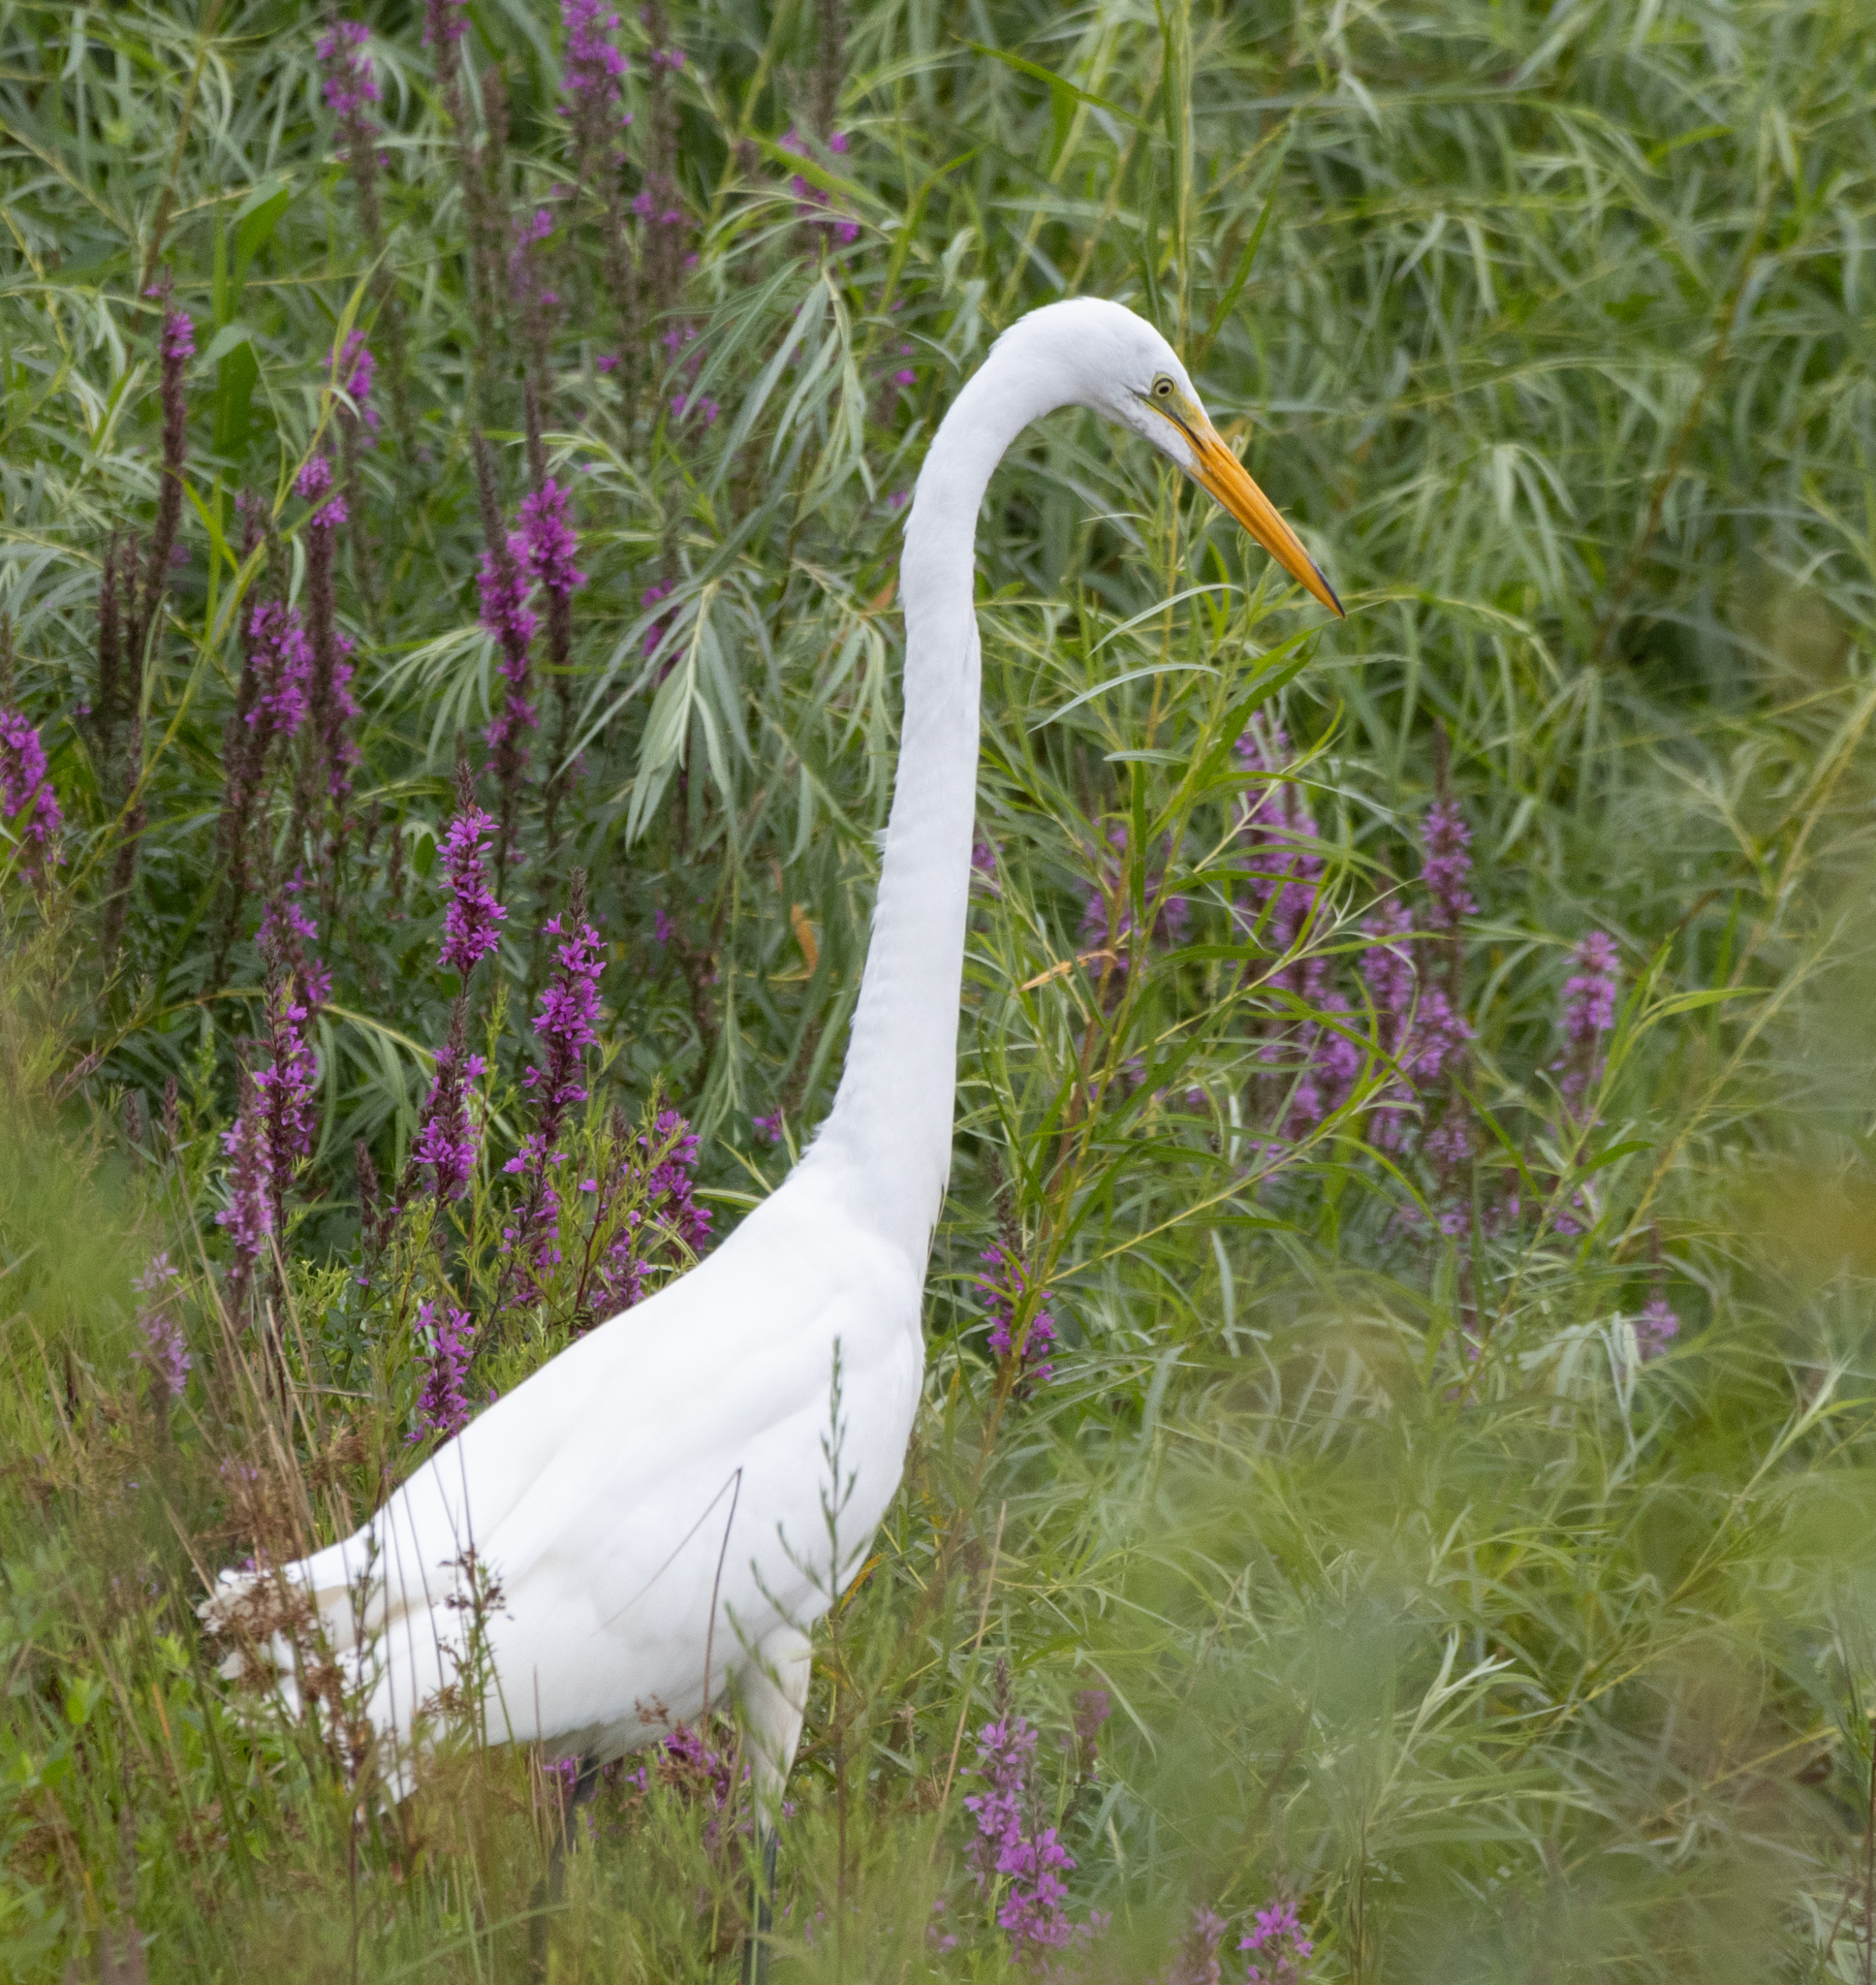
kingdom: Animalia
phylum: Chordata
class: Aves
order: Pelecaniformes
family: Ardeidae
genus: Ardea
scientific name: Ardea alba
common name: Great egret
